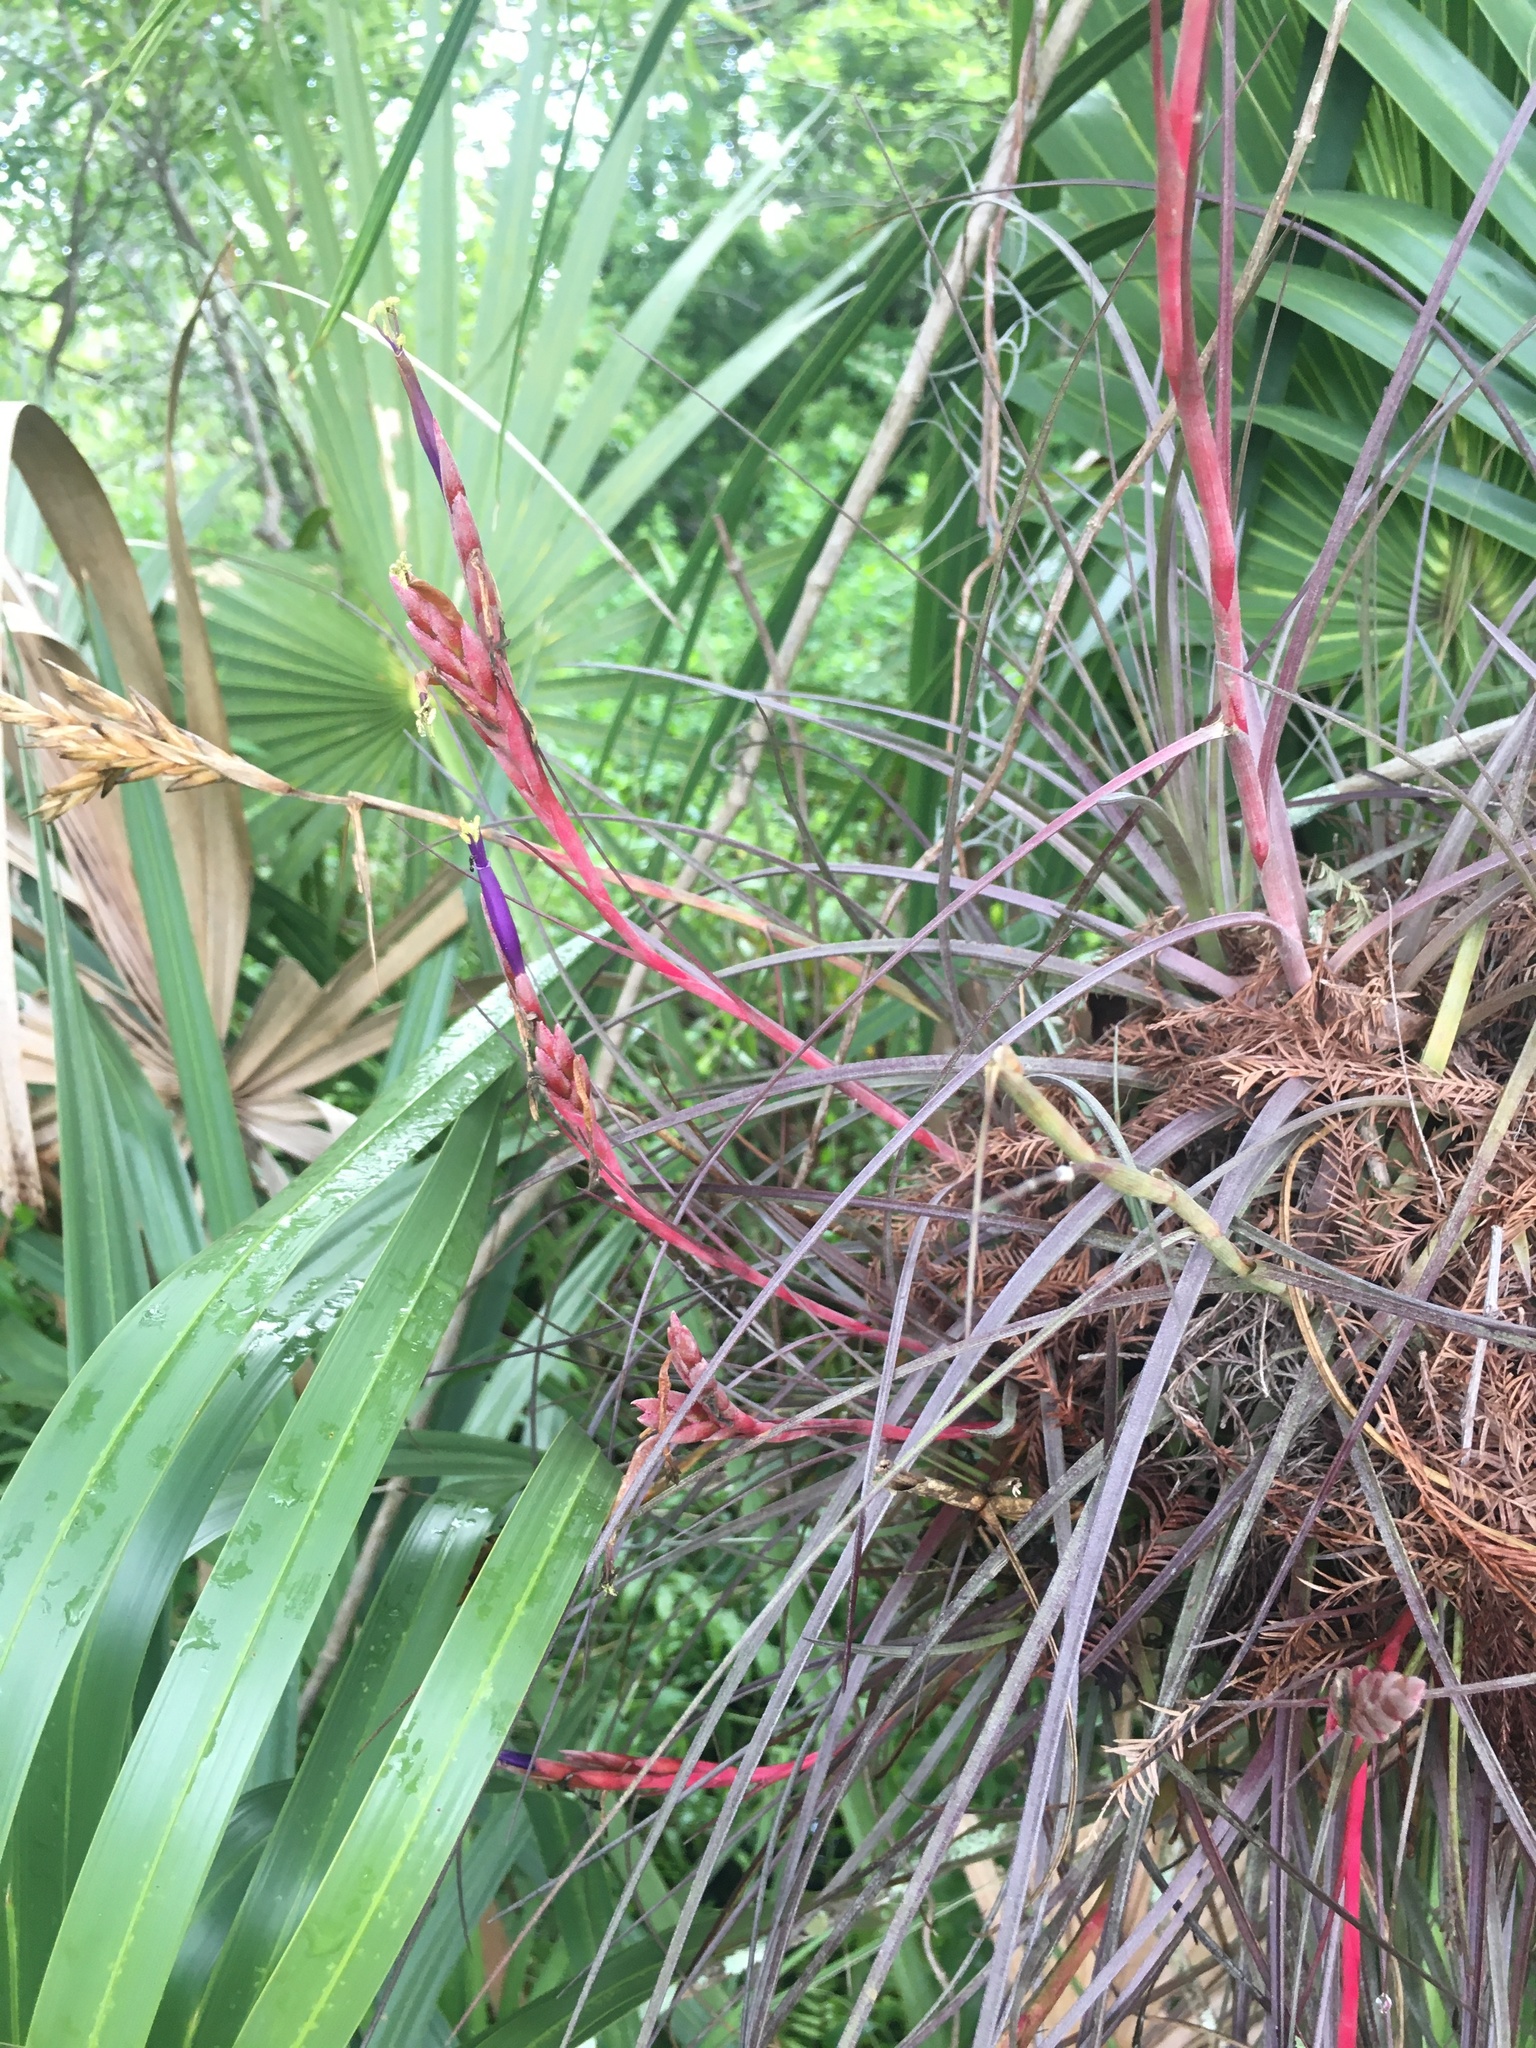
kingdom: Plantae
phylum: Tracheophyta
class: Liliopsida
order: Poales
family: Bromeliaceae
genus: Tillandsia
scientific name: Tillandsia balbisiana
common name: Northern needleleaf
